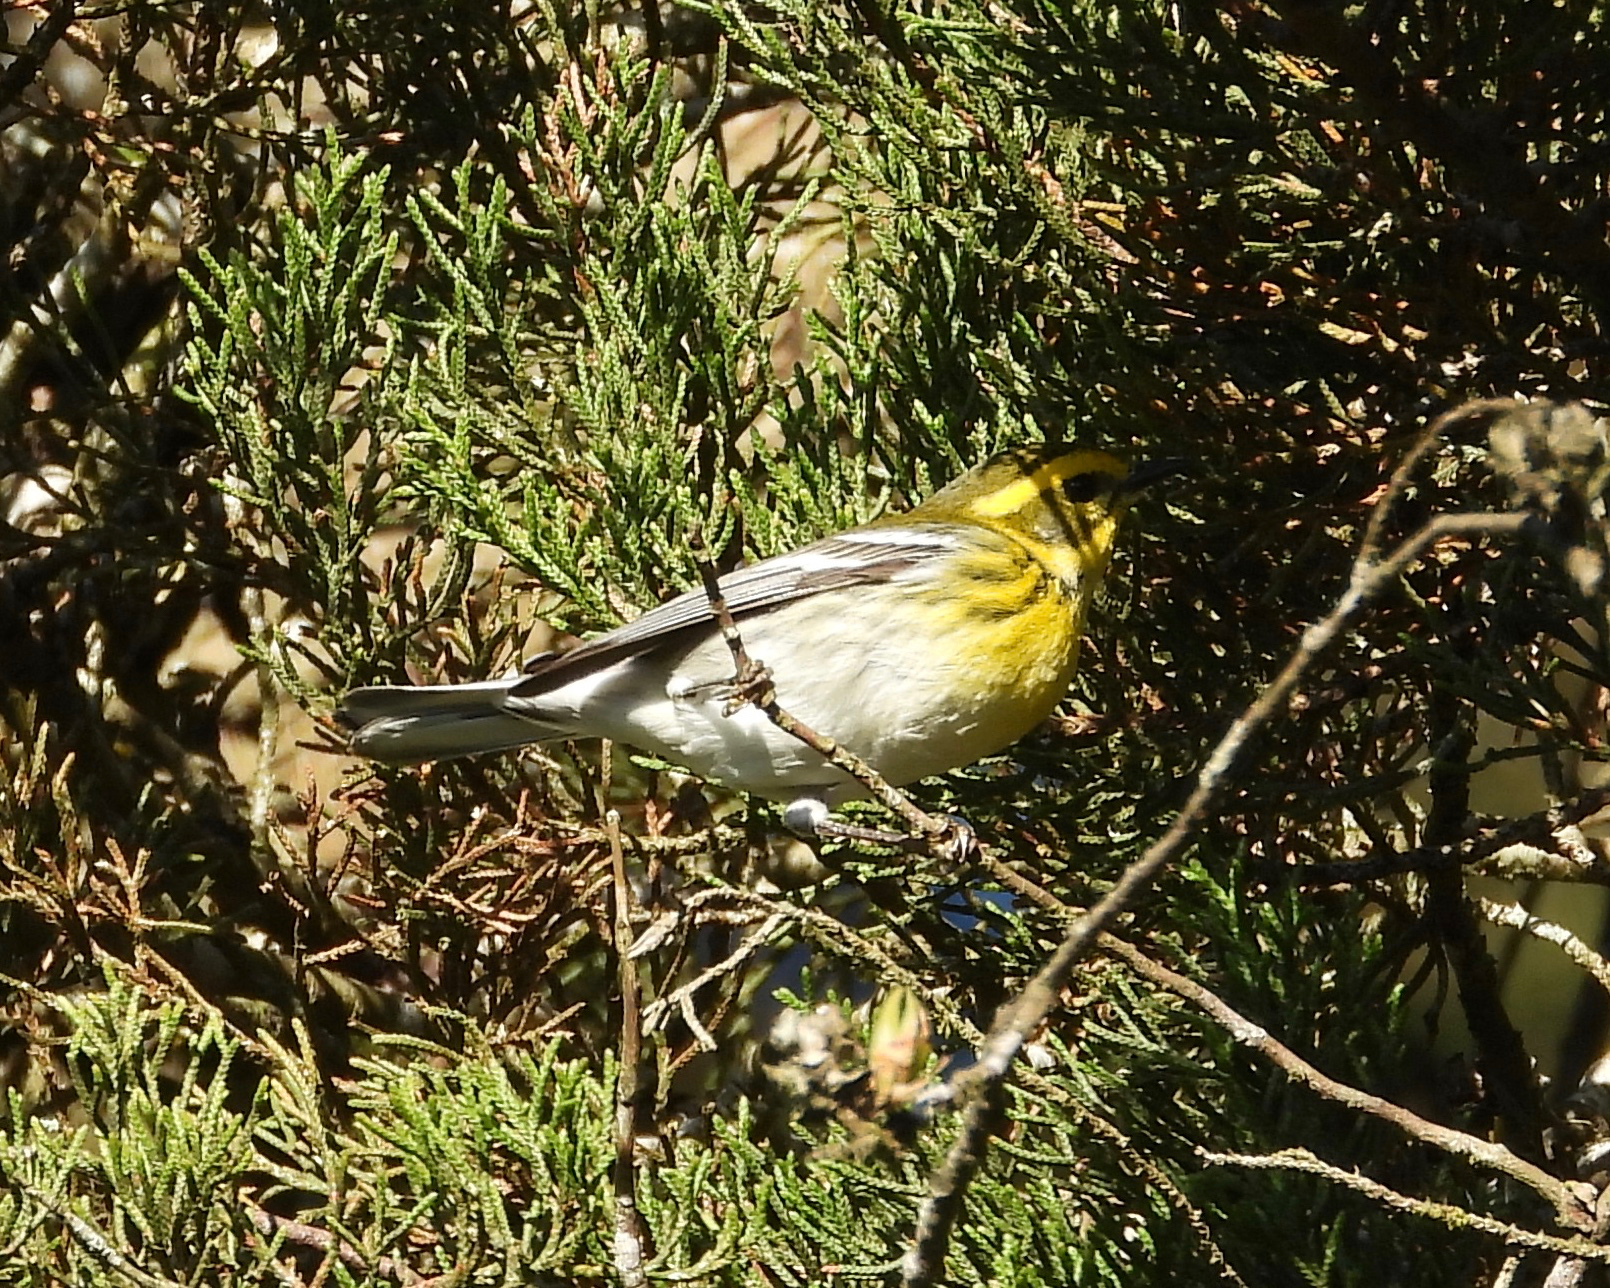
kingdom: Animalia
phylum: Chordata
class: Aves
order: Passeriformes
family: Parulidae
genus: Setophaga
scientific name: Setophaga townsendi
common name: Townsend's warbler
